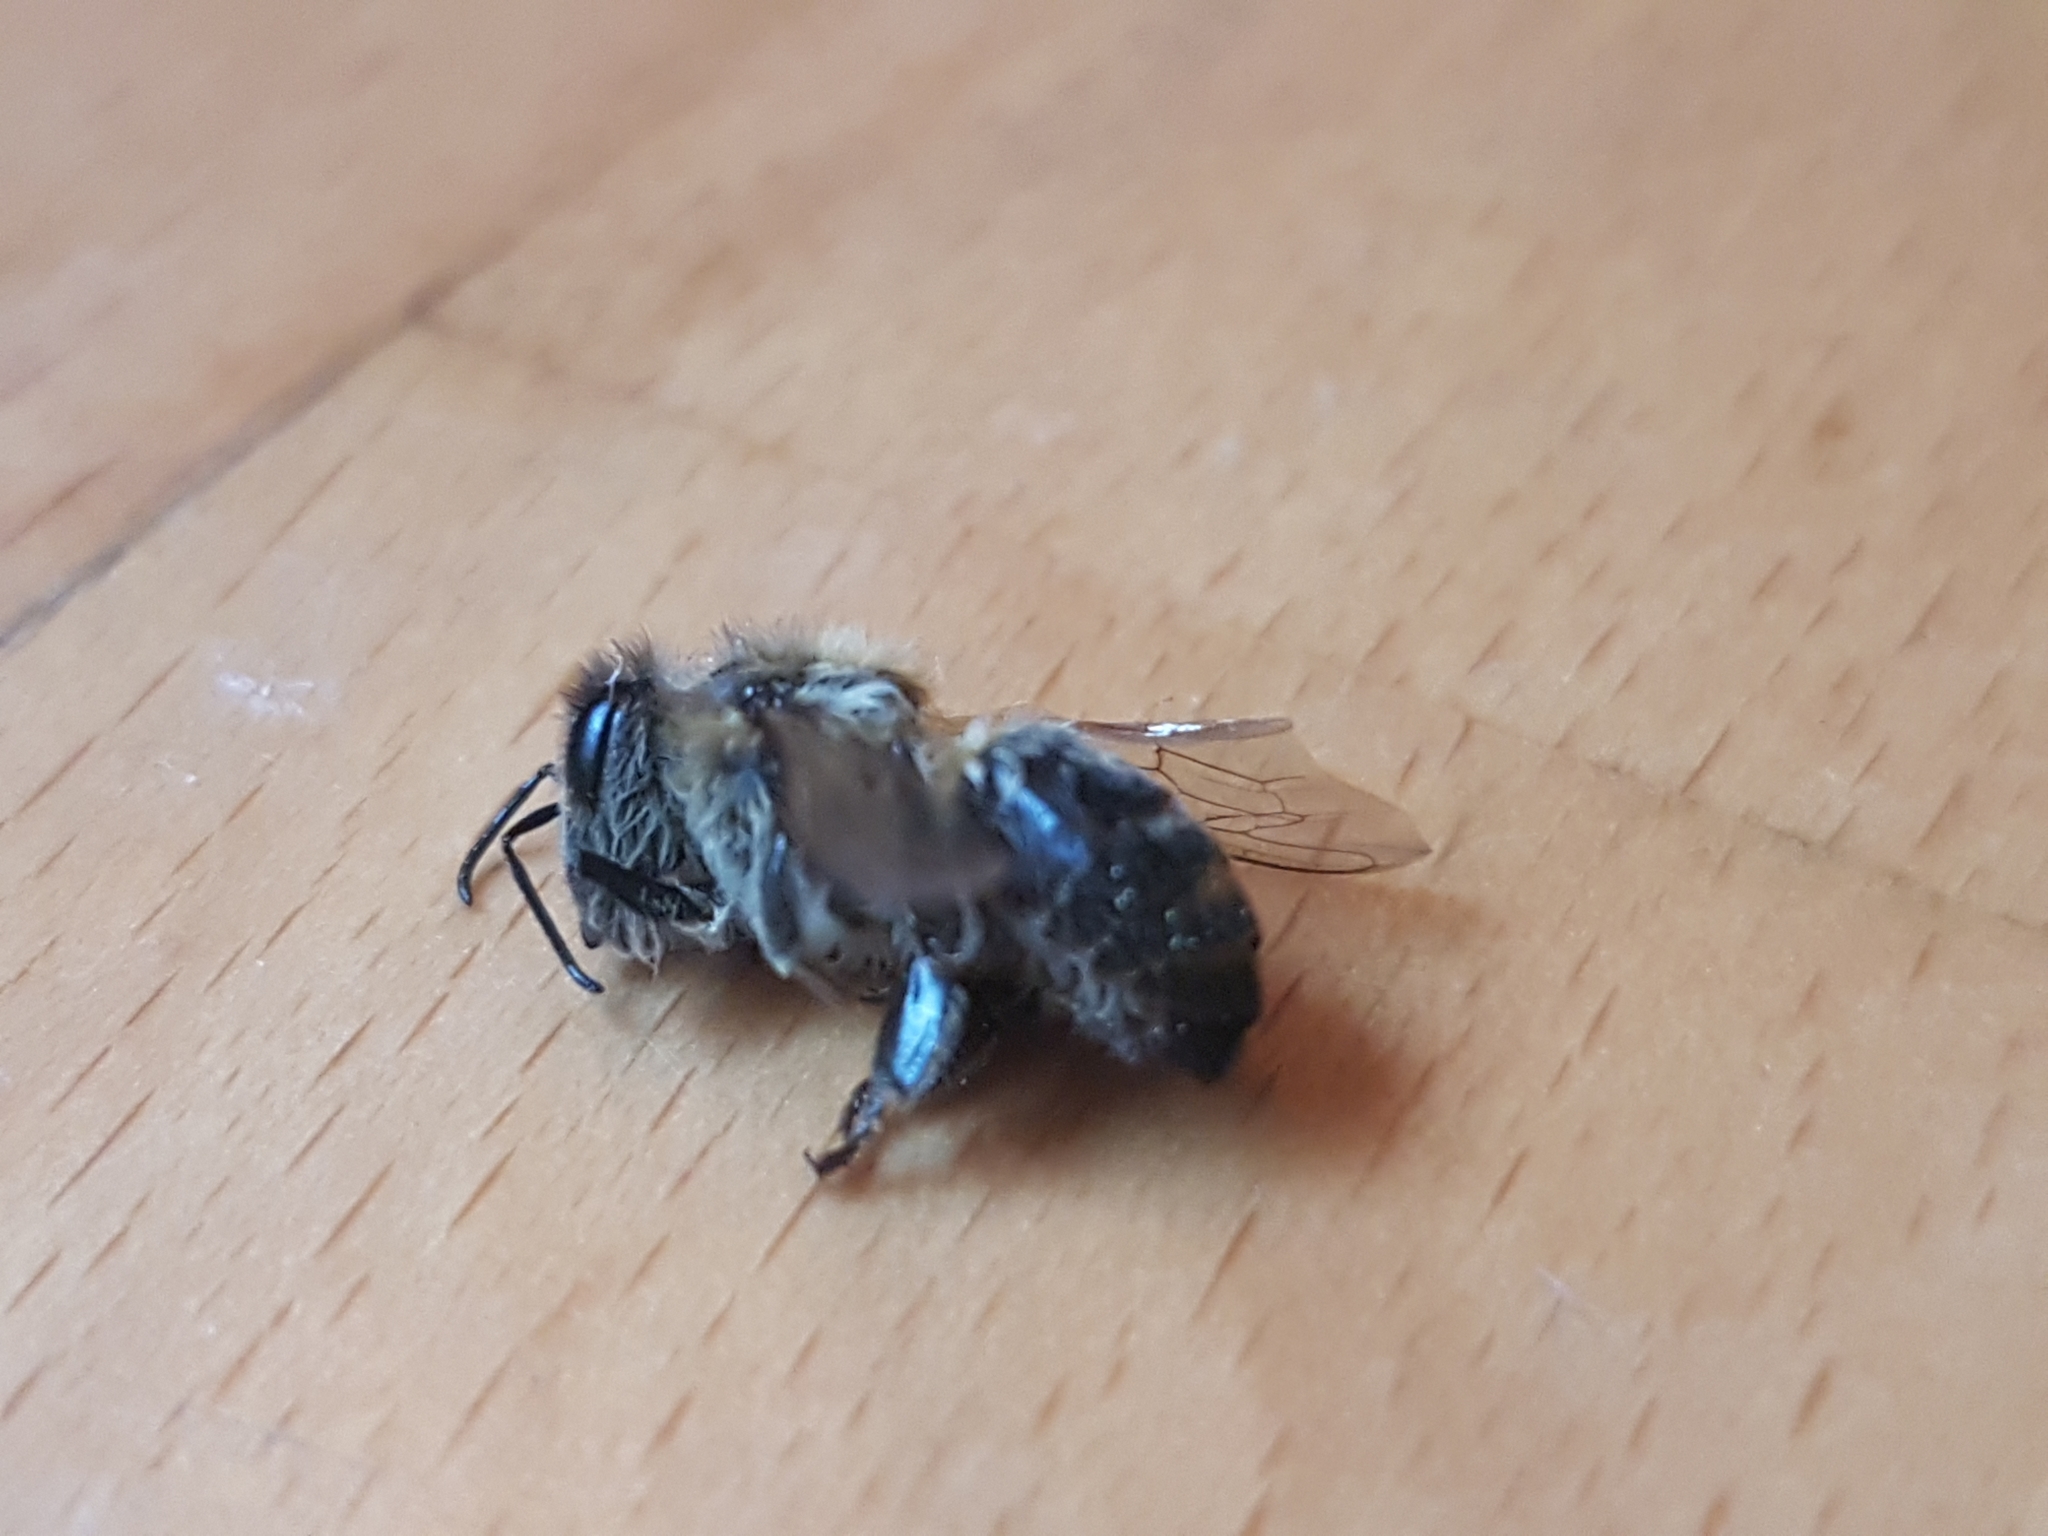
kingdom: Animalia
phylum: Arthropoda
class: Insecta
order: Hymenoptera
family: Apidae
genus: Apis
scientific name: Apis mellifera
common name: Honey bee
